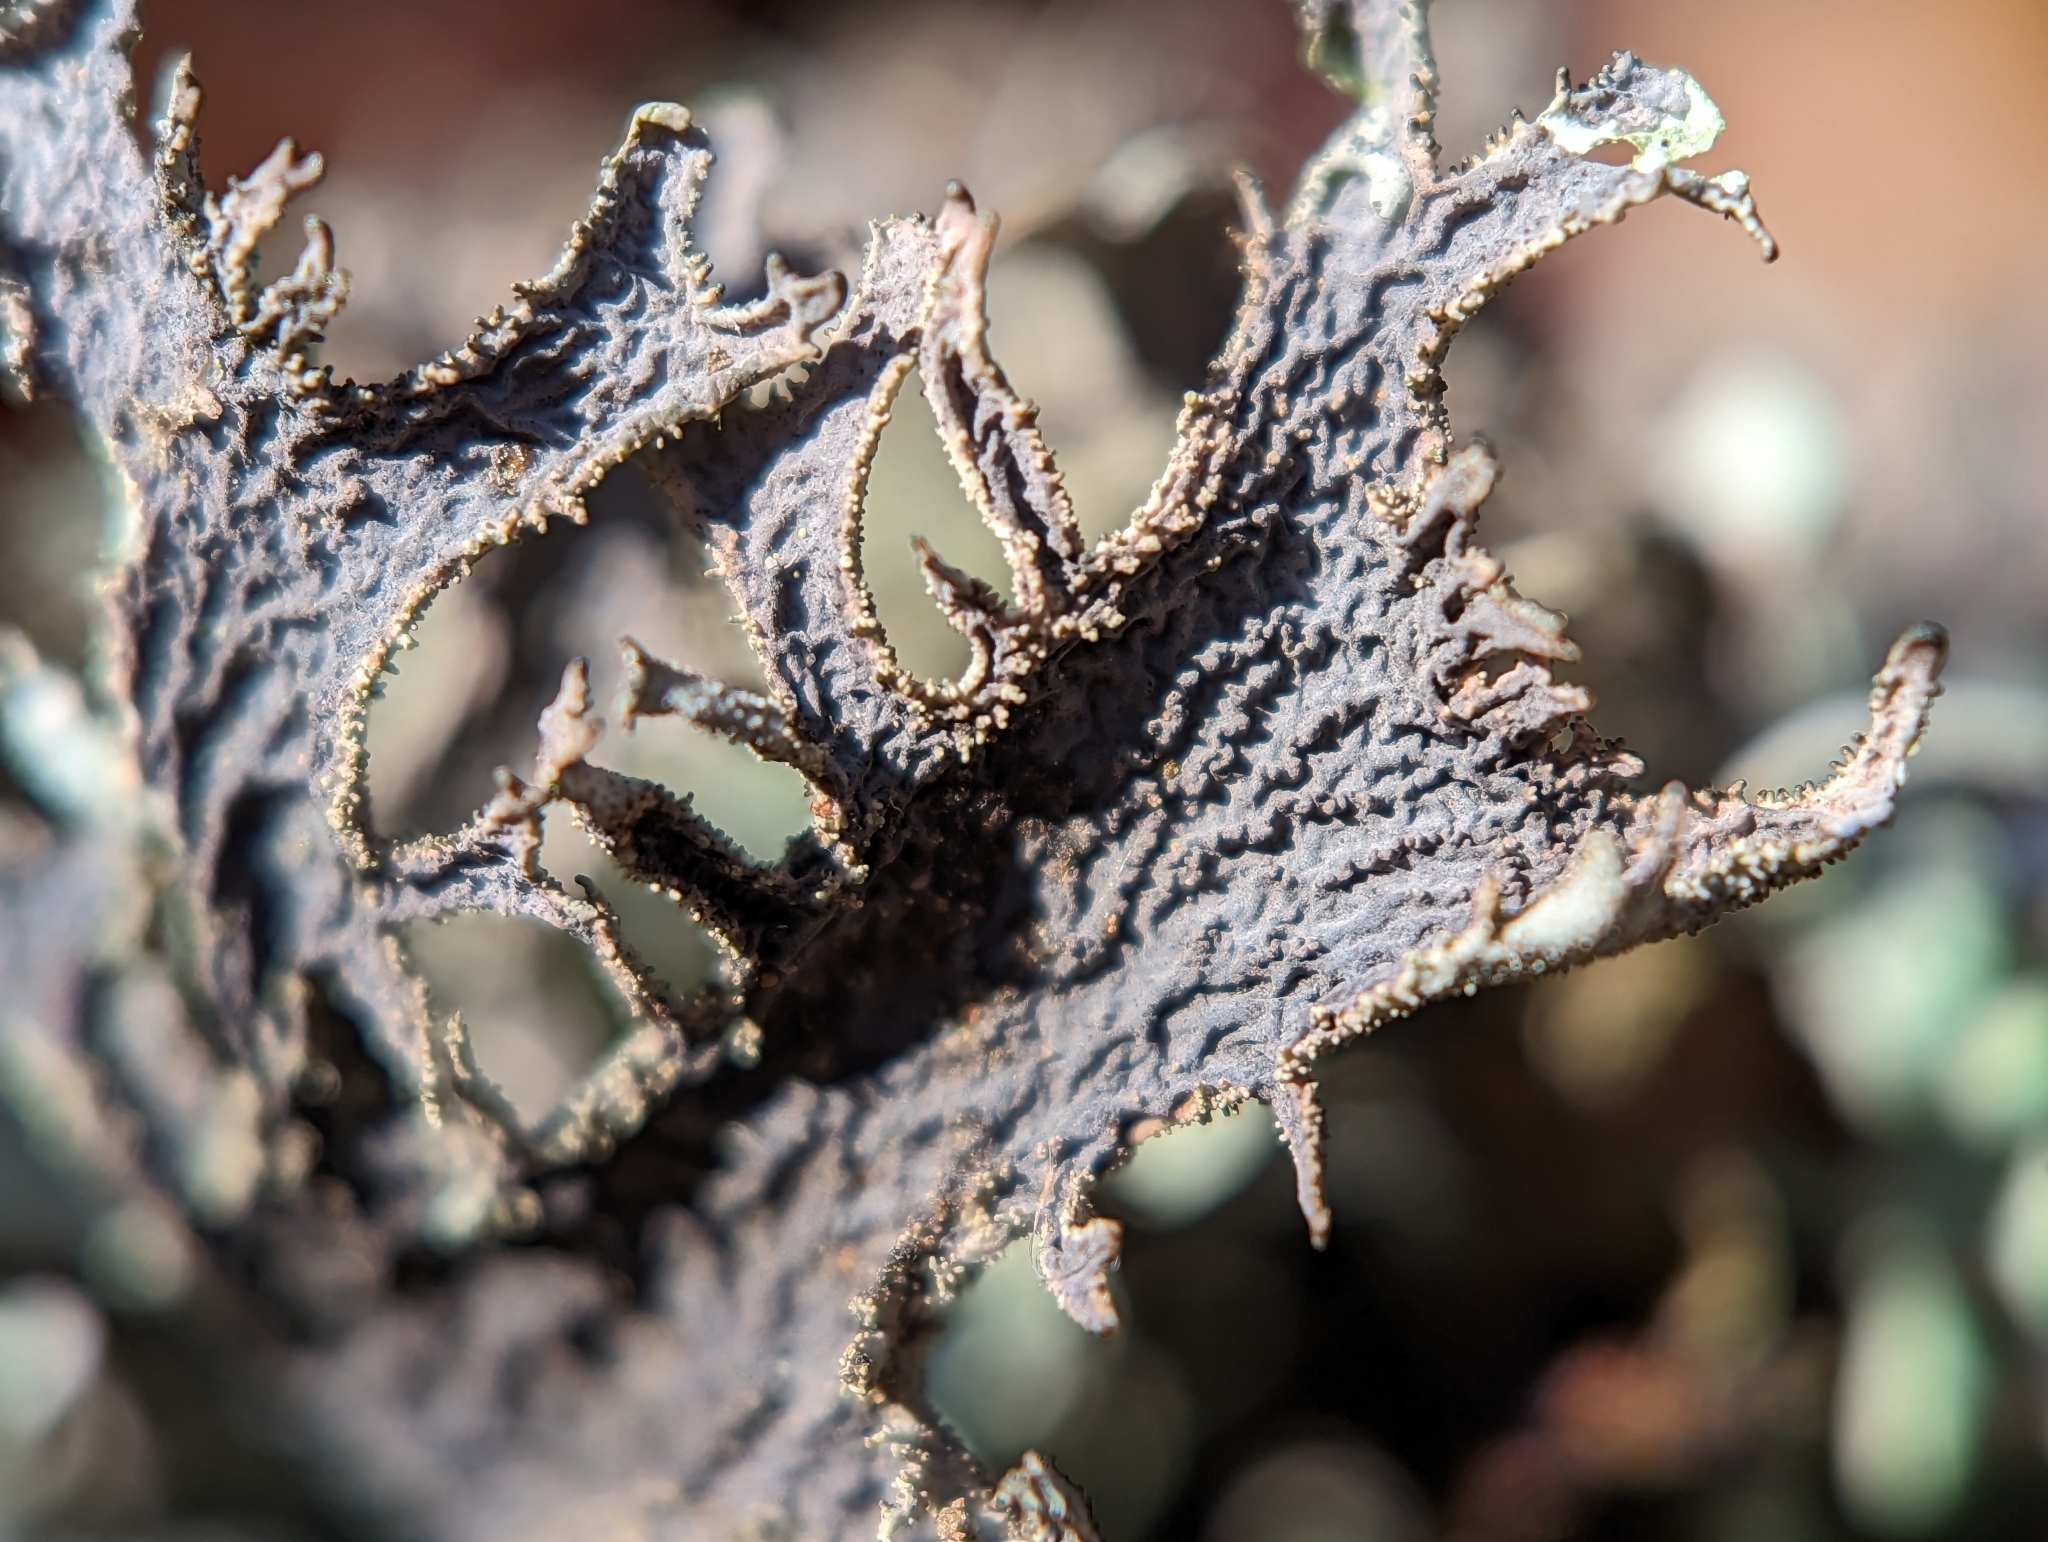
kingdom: Fungi
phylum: Ascomycota
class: Lecanoromycetes
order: Lecanorales
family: Parmeliaceae
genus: Pseudevernia
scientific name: Pseudevernia furfuracea
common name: Tree moss
